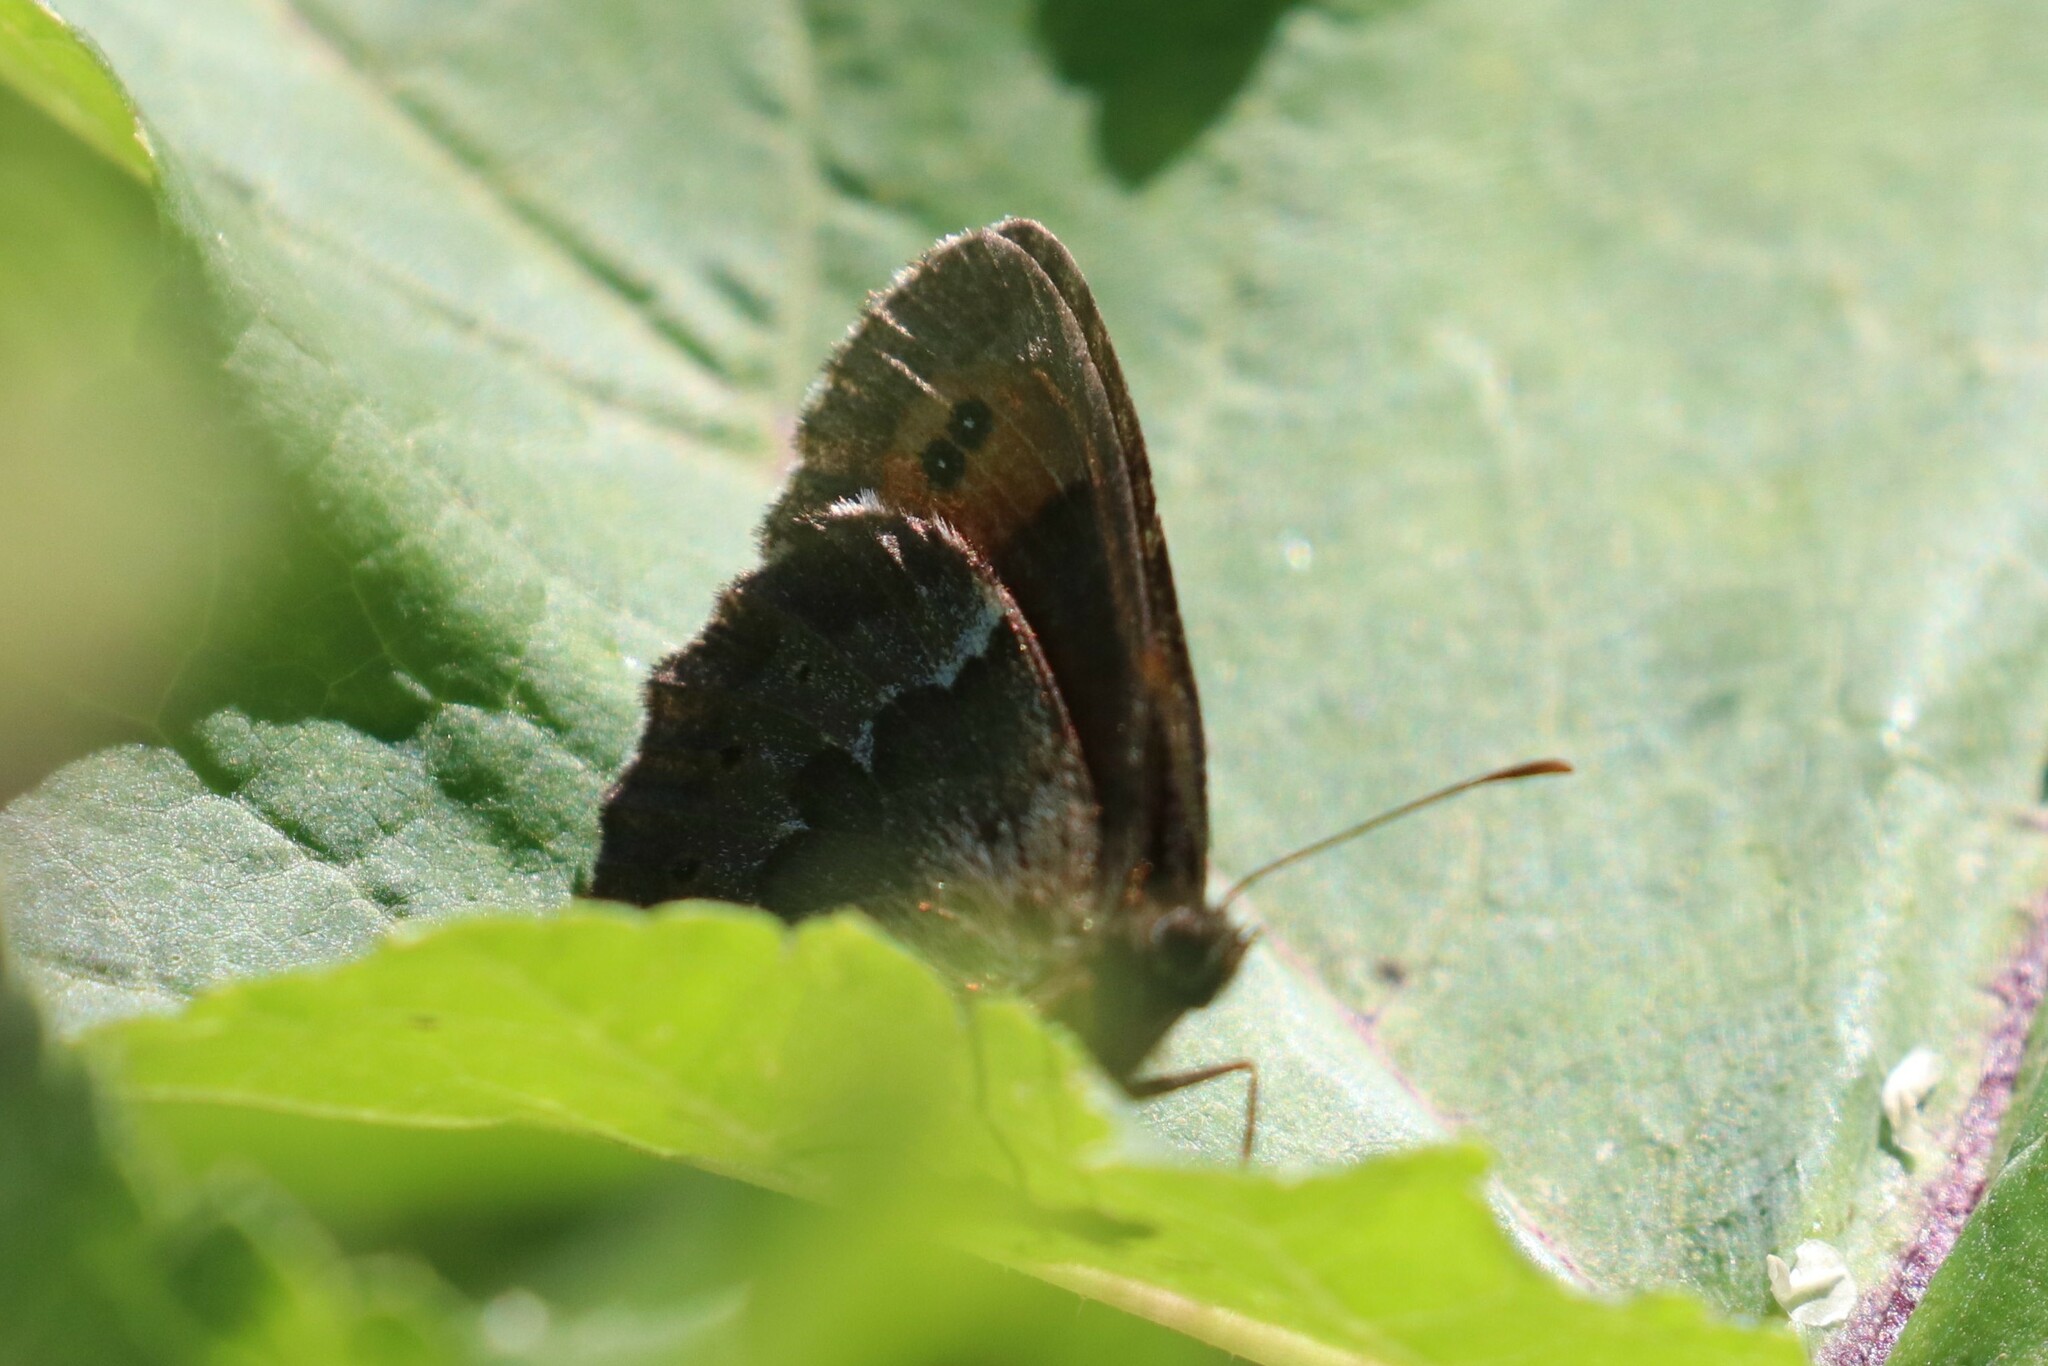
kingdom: Animalia
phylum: Arthropoda
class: Insecta
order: Lepidoptera
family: Nymphalidae
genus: Erebia
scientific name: Erebia ligea
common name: Arran brown
